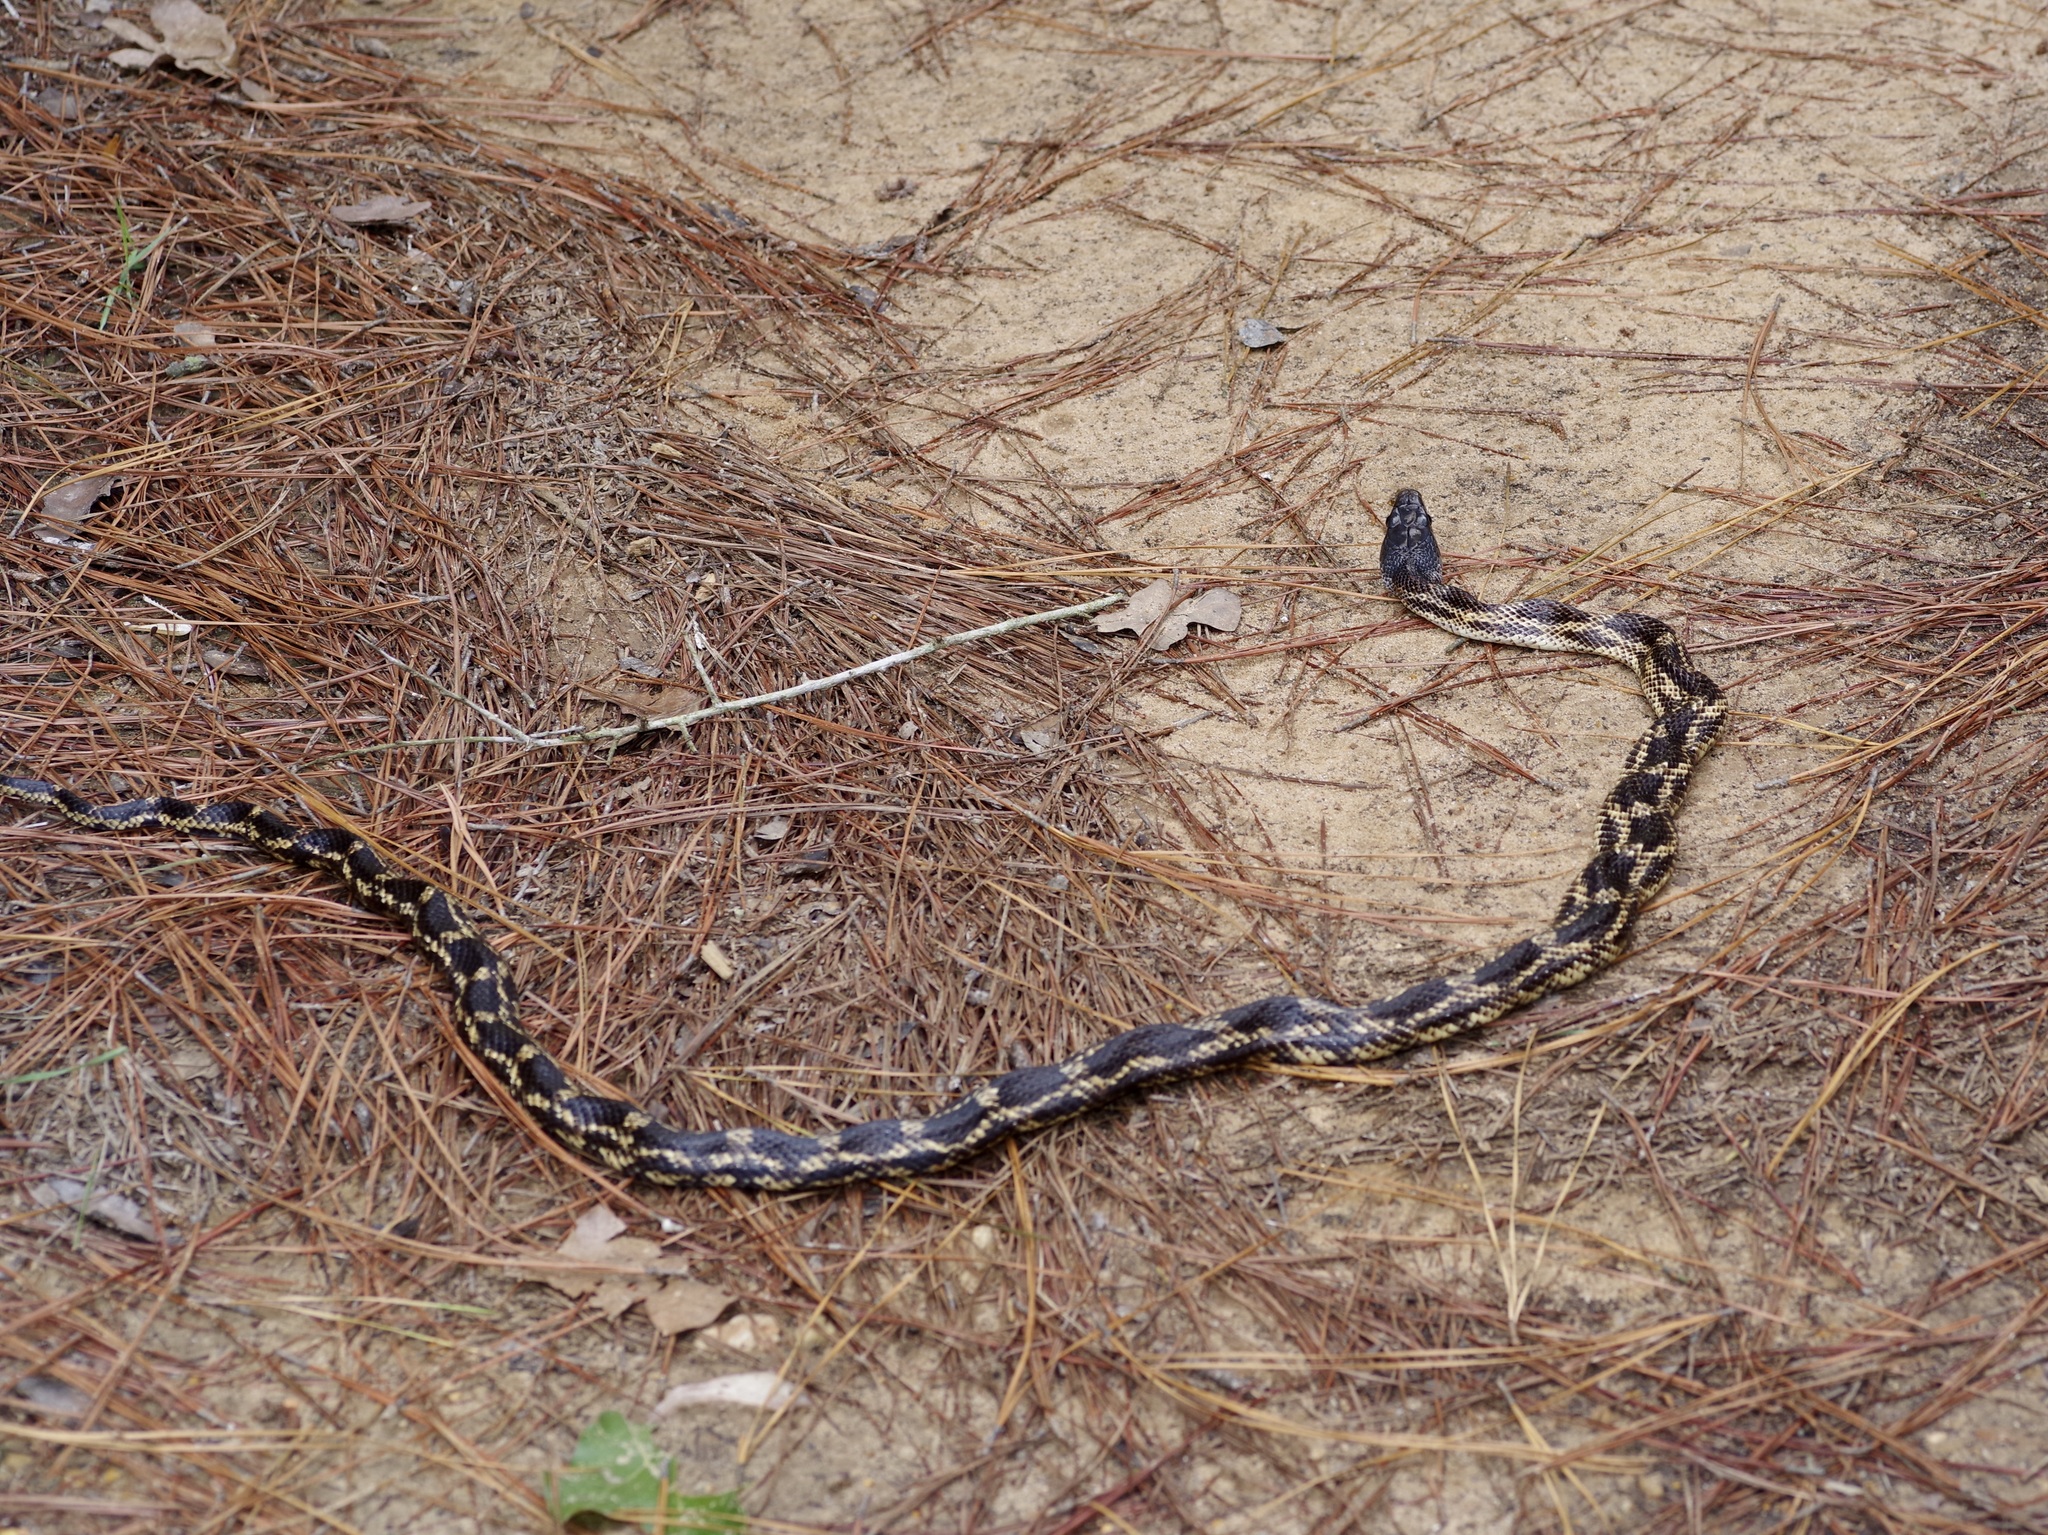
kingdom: Animalia
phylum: Chordata
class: Squamata
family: Colubridae
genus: Pantherophis
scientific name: Pantherophis obsoletus
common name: Black rat snake
